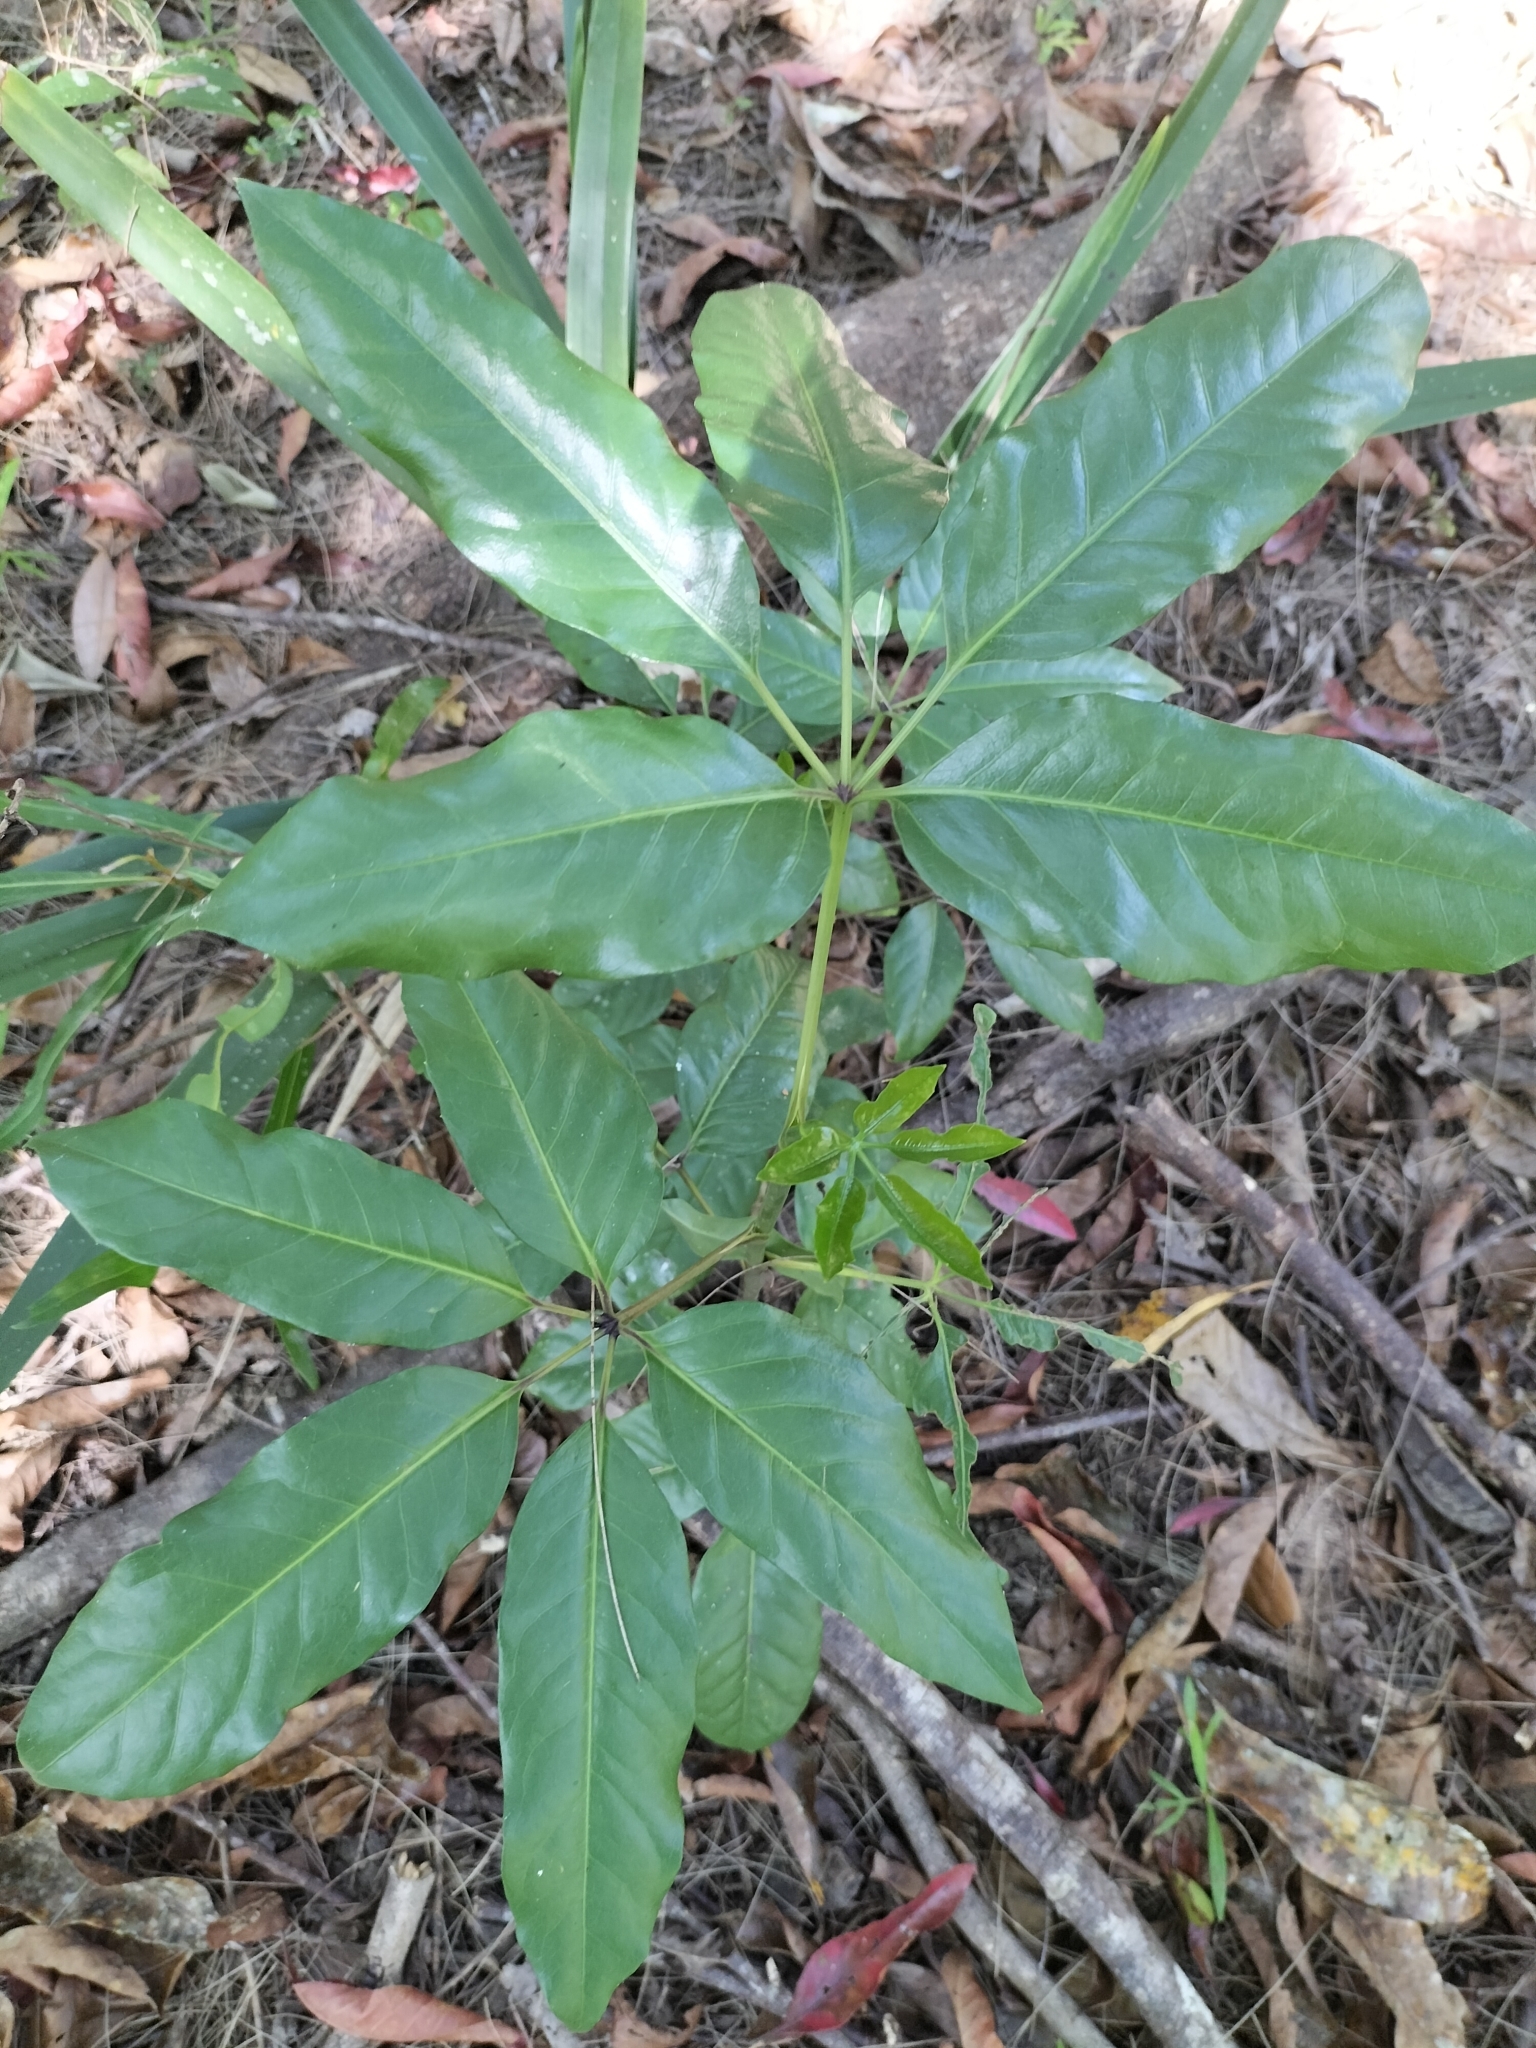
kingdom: Plantae
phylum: Tracheophyta
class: Magnoliopsida
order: Apiales
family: Apiaceae
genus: Mackinlaya
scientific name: Mackinlaya macrosciadea
